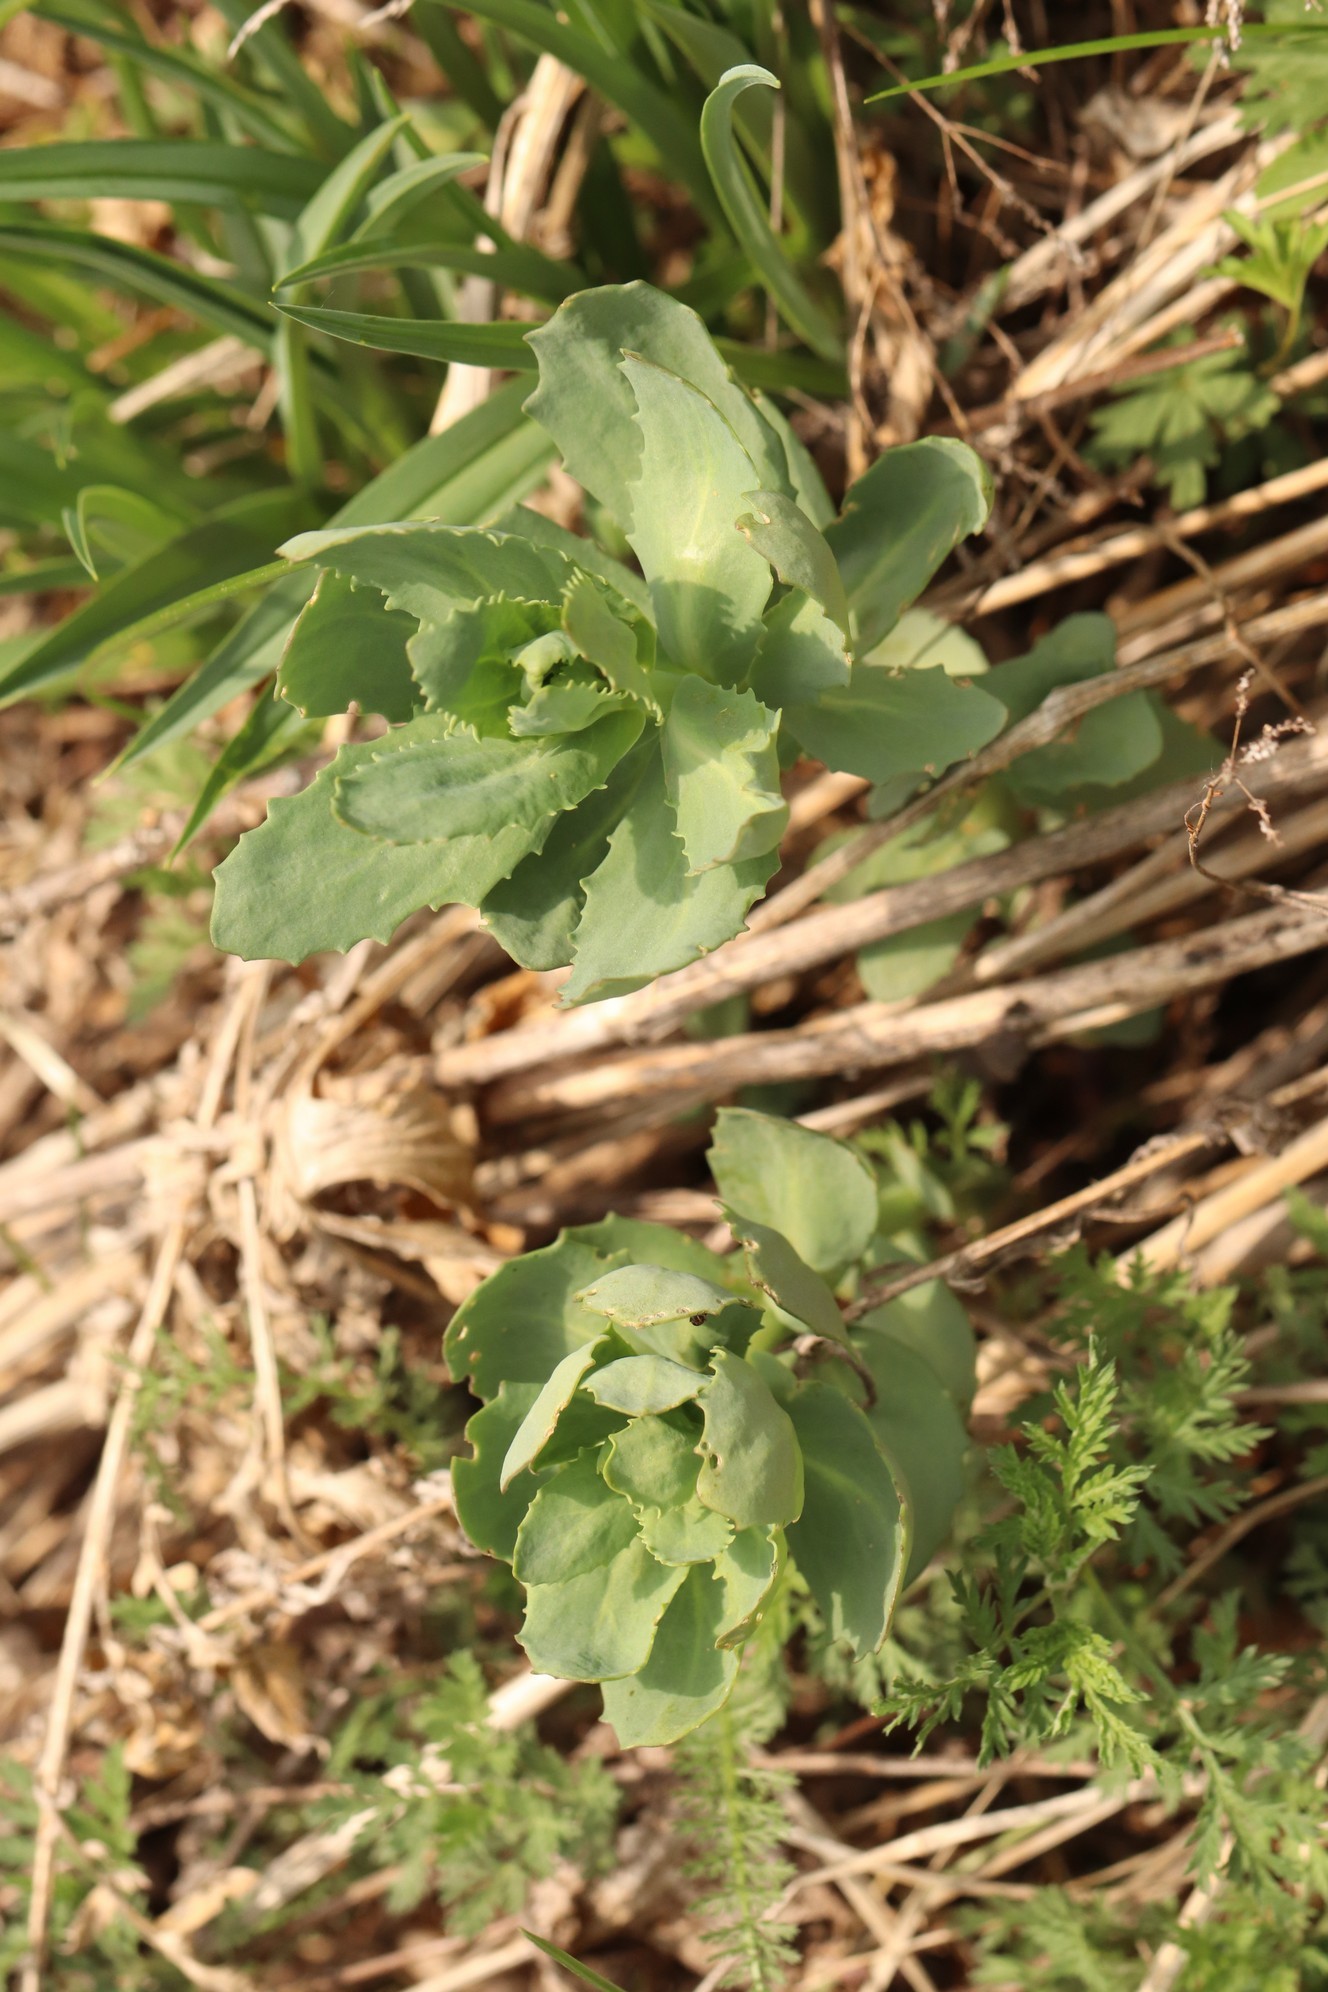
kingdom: Plantae
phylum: Tracheophyta
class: Magnoliopsida
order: Saxifragales
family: Crassulaceae
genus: Hylotelephium
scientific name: Hylotelephium telephium
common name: Live-forever
